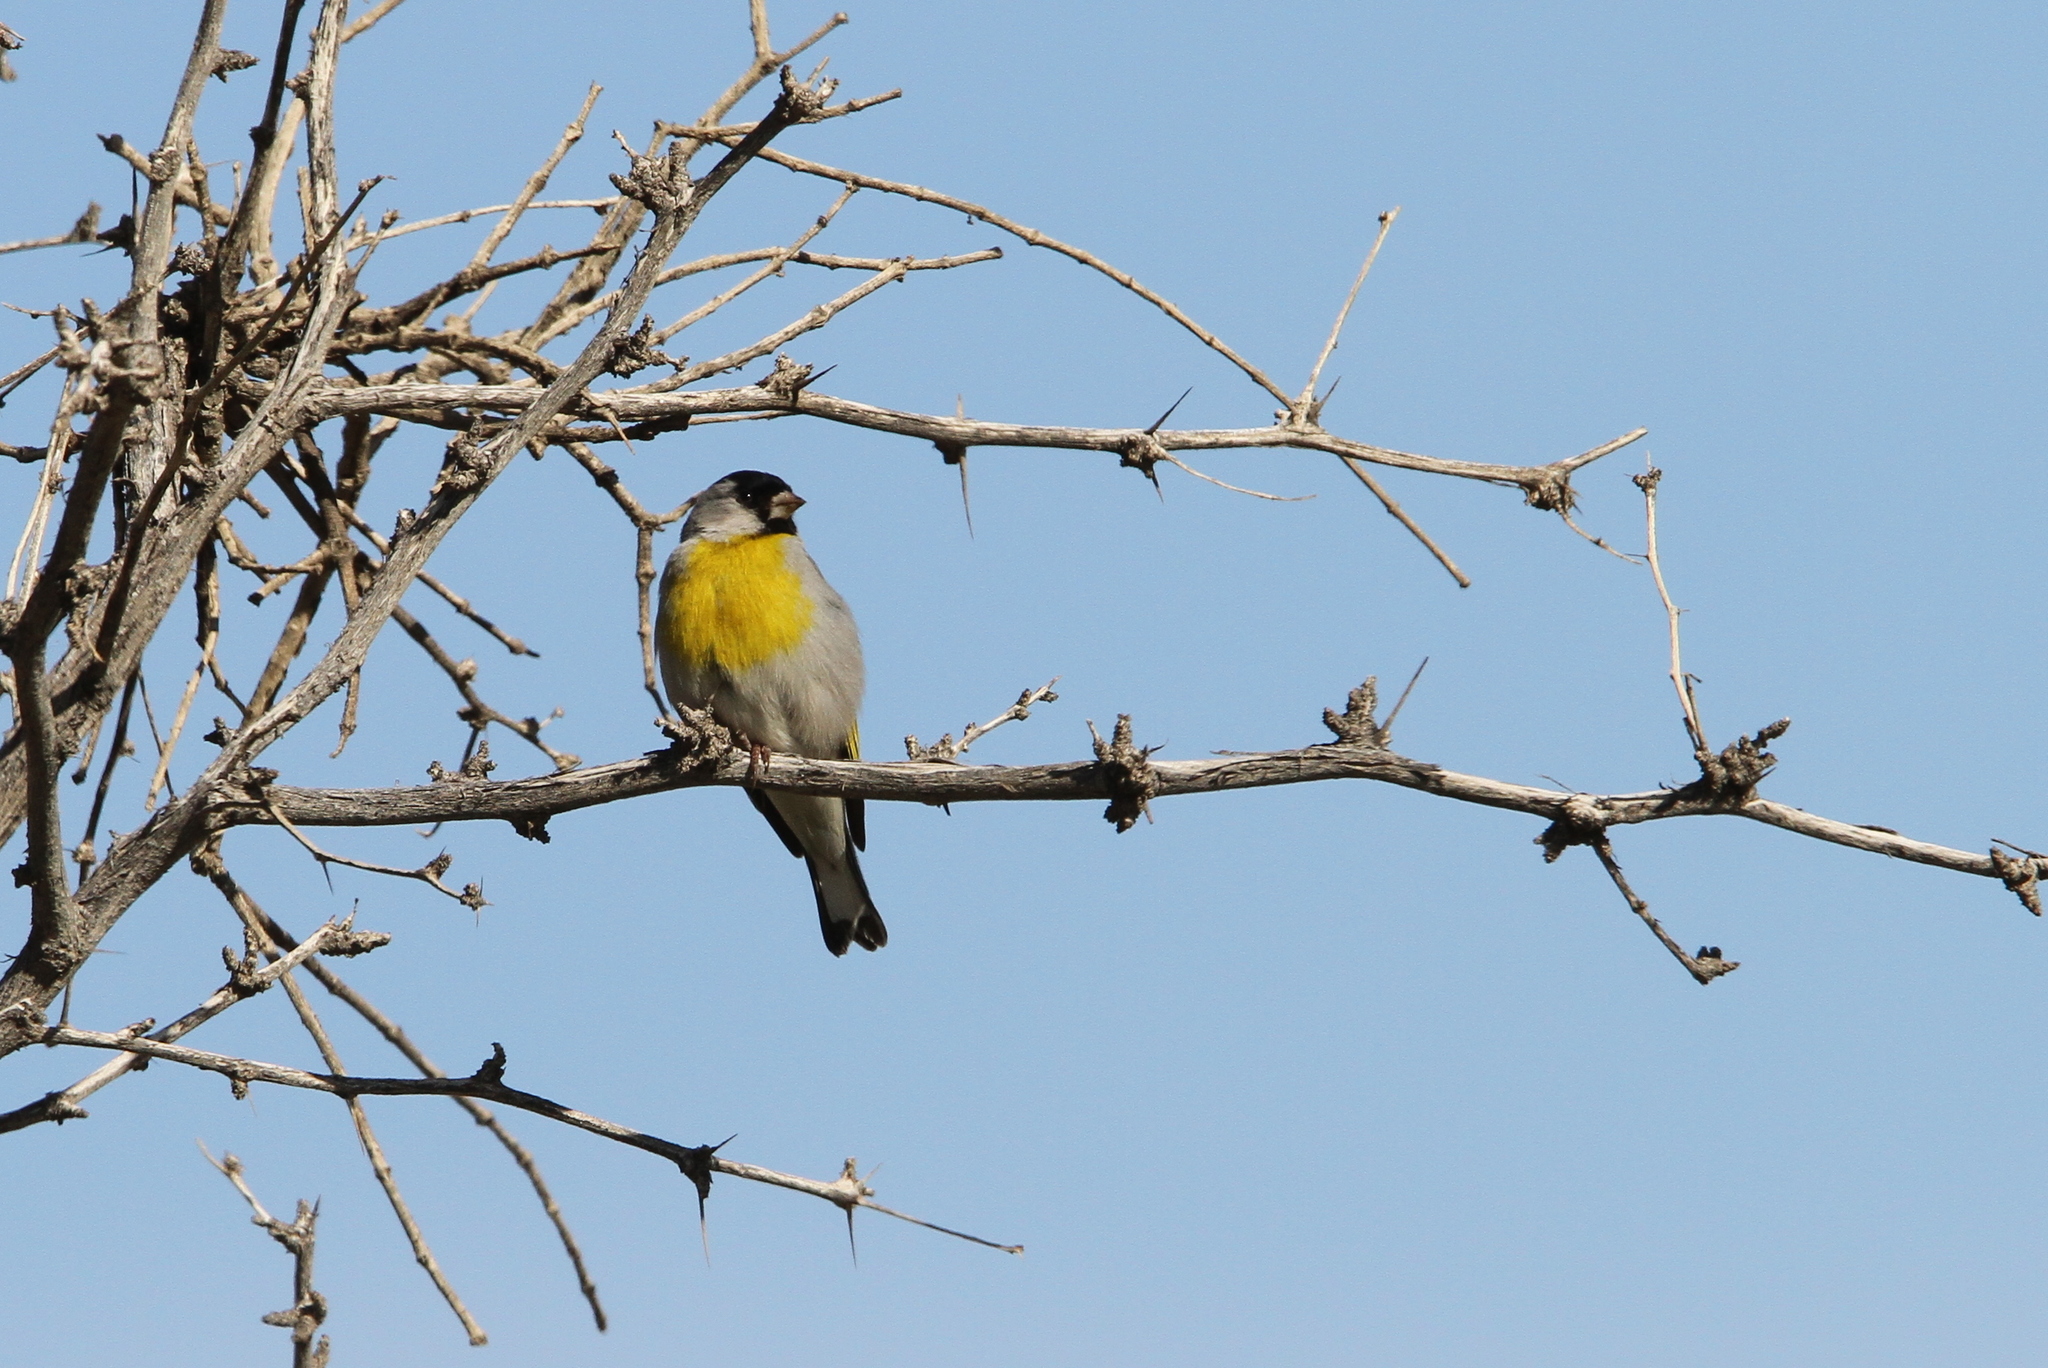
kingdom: Animalia
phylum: Chordata
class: Aves
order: Passeriformes
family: Fringillidae
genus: Spinus
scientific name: Spinus lawrencei
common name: Lawrence's goldfinch
